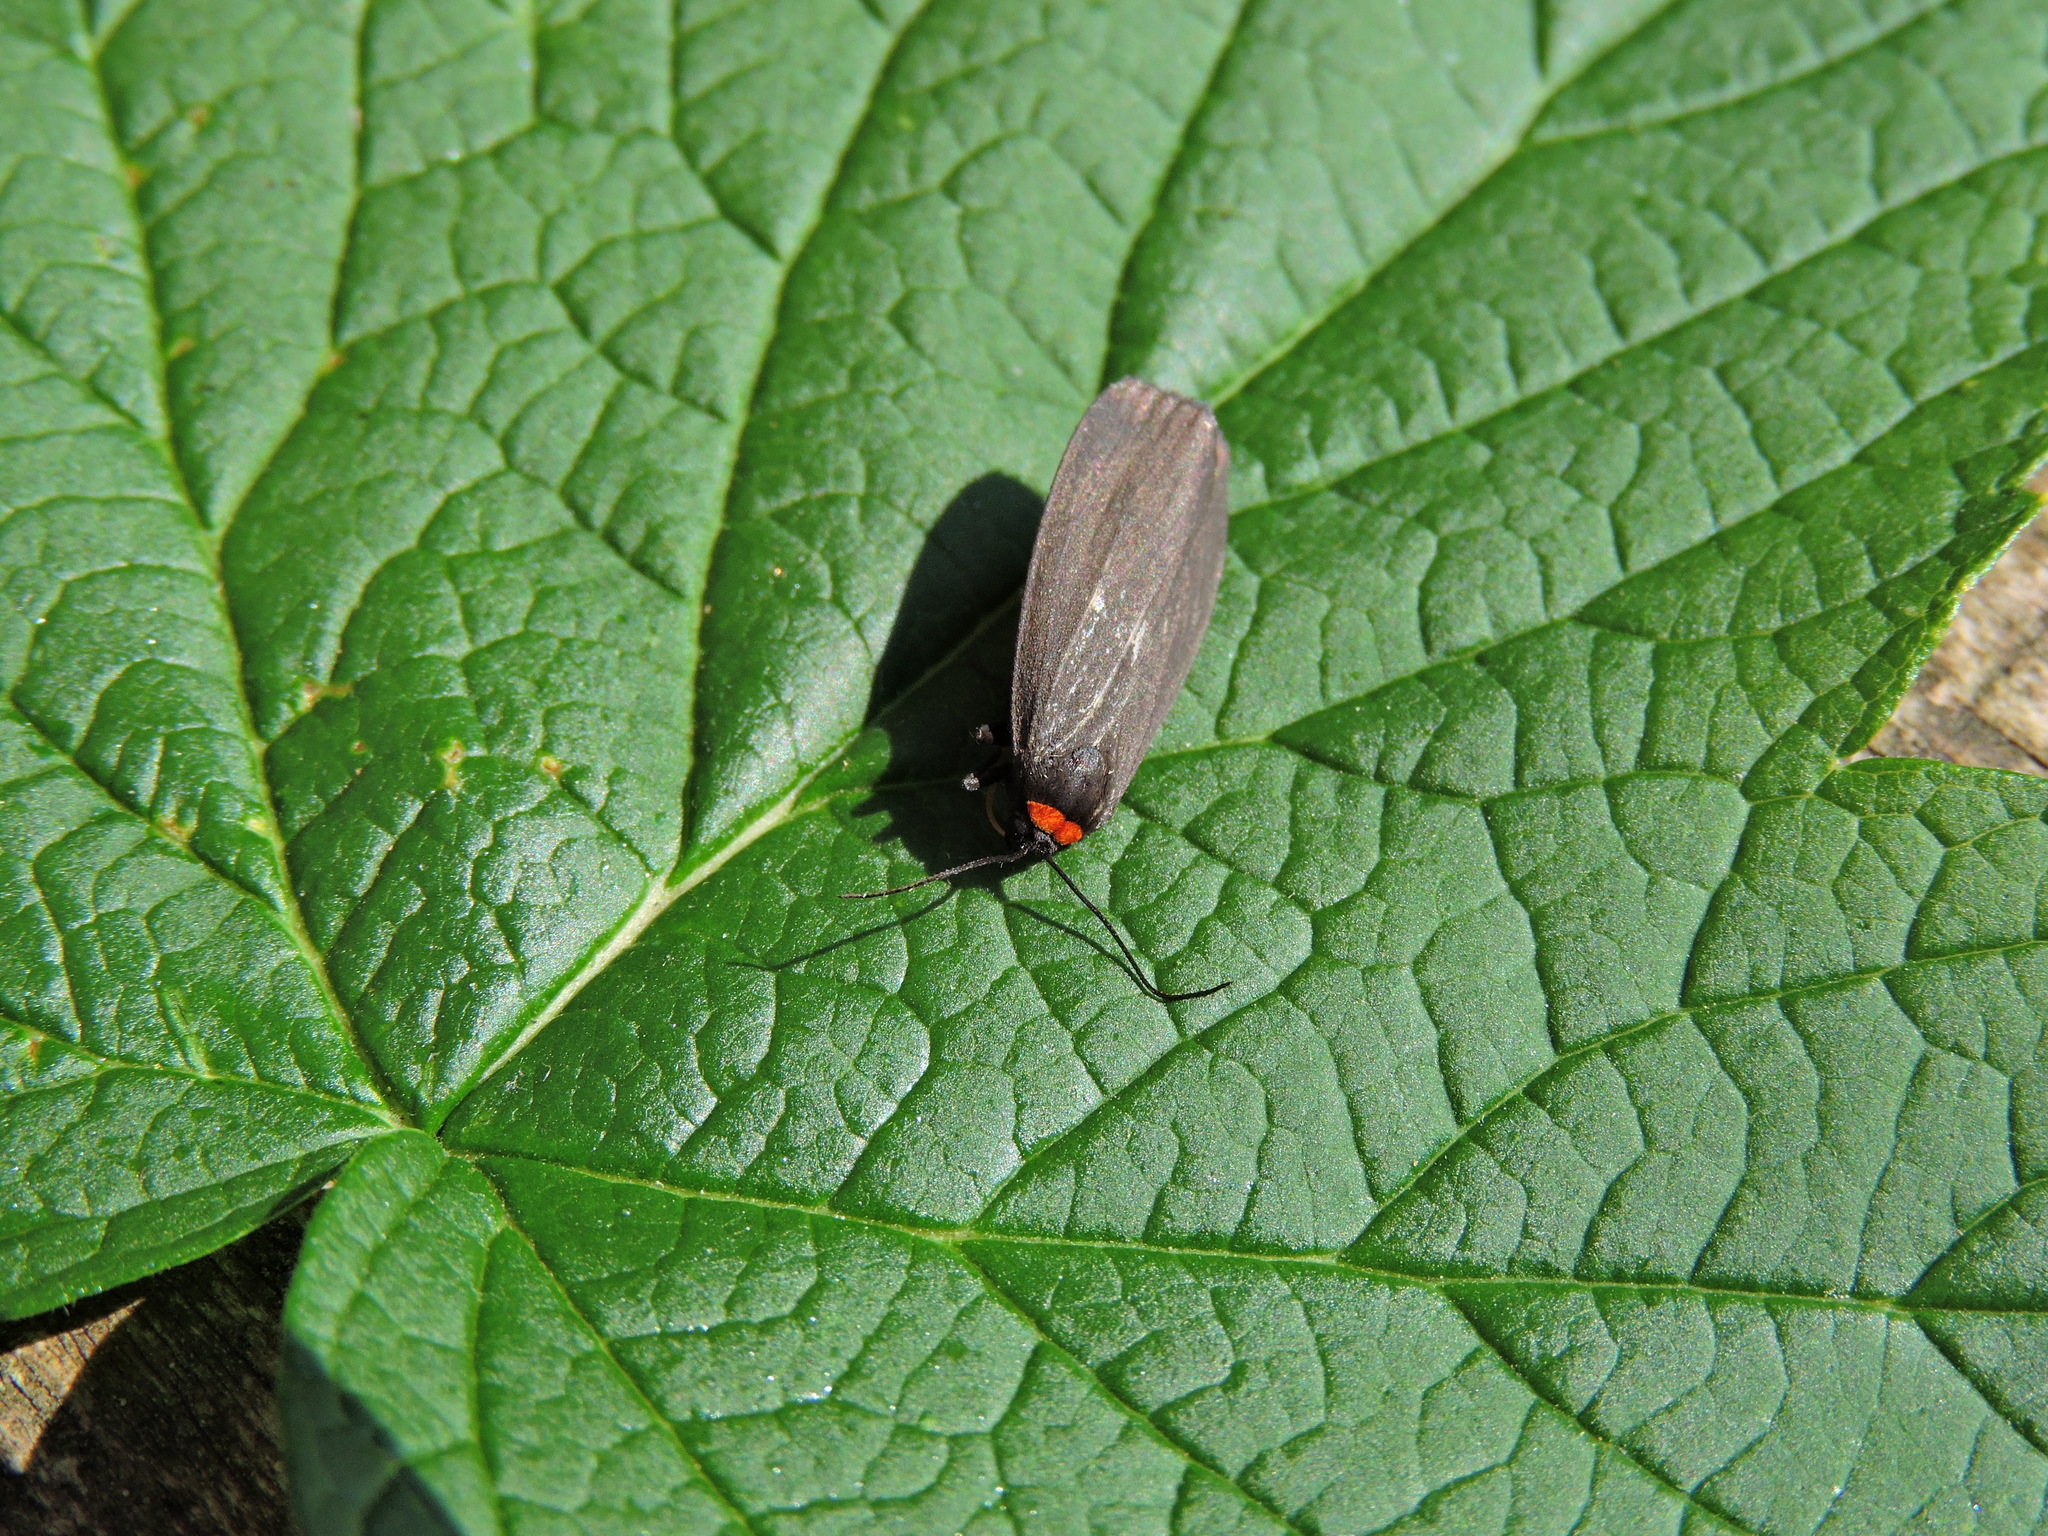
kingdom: Animalia
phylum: Arthropoda
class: Insecta
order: Lepidoptera
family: Erebidae
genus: Atolmis
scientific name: Atolmis rubricollis
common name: Red-necked footman
